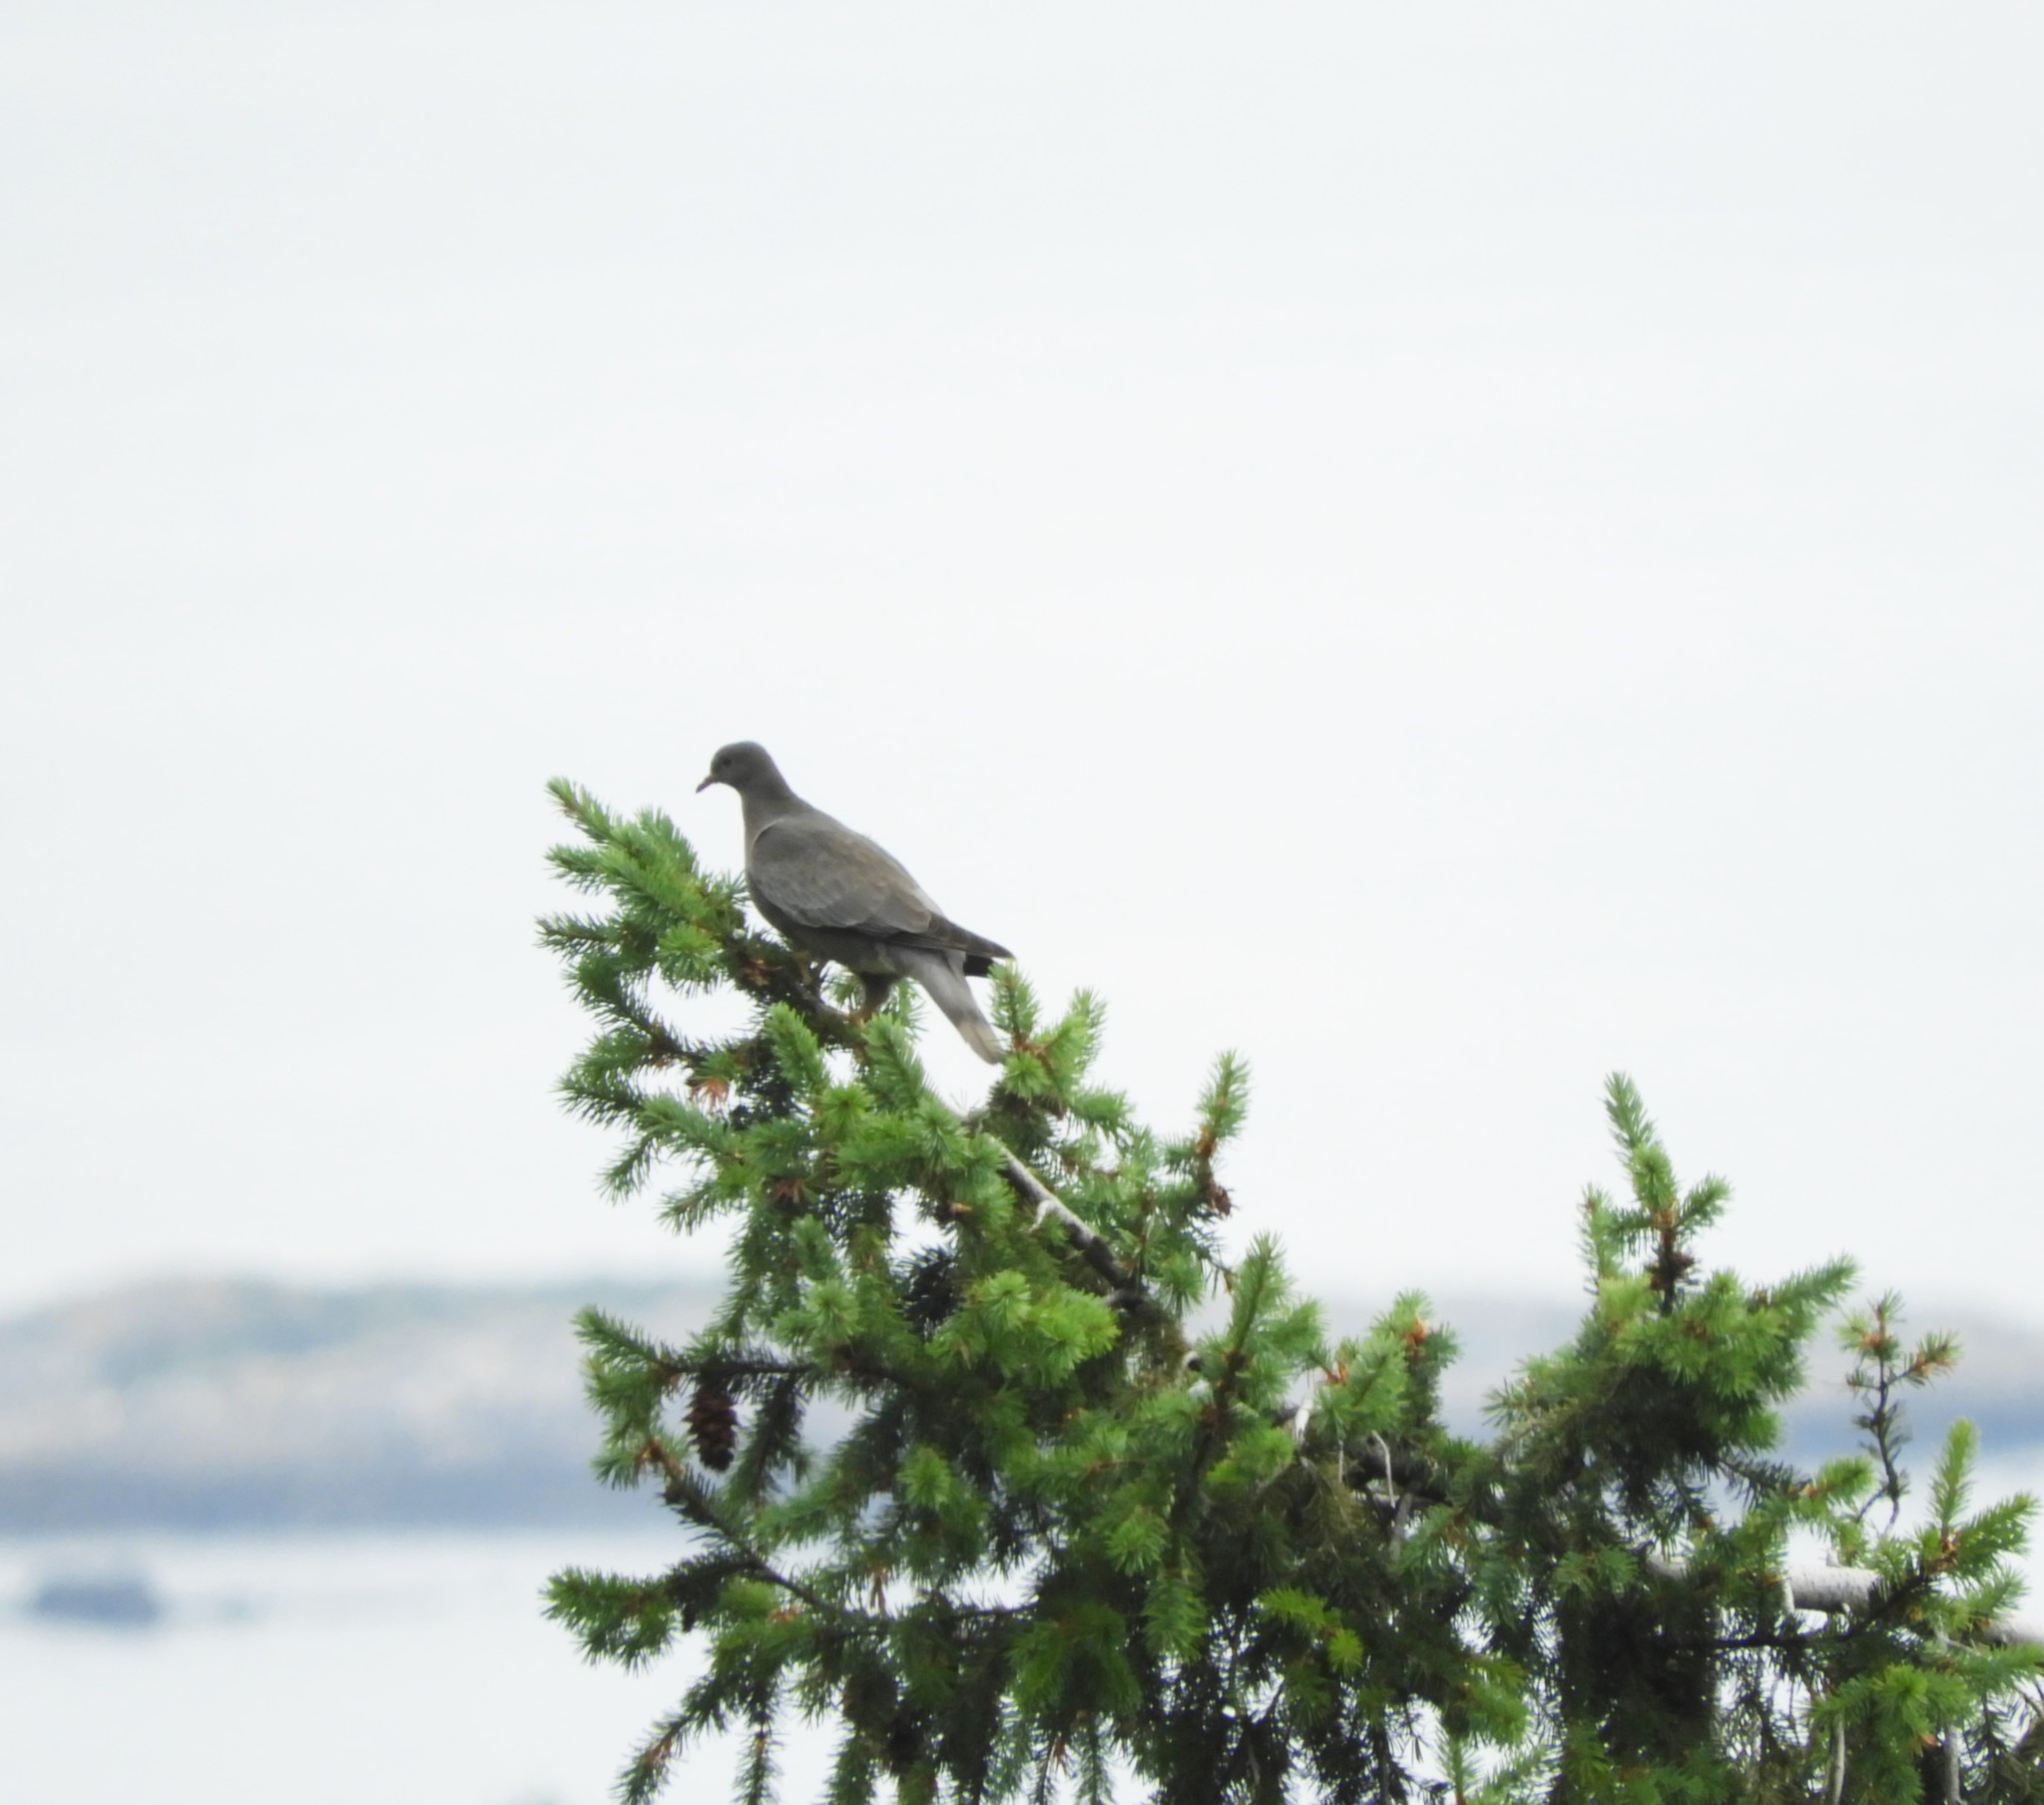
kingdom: Animalia
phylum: Chordata
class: Aves
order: Columbiformes
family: Columbidae
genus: Patagioenas
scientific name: Patagioenas fasciata
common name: Band-tailed pigeon
